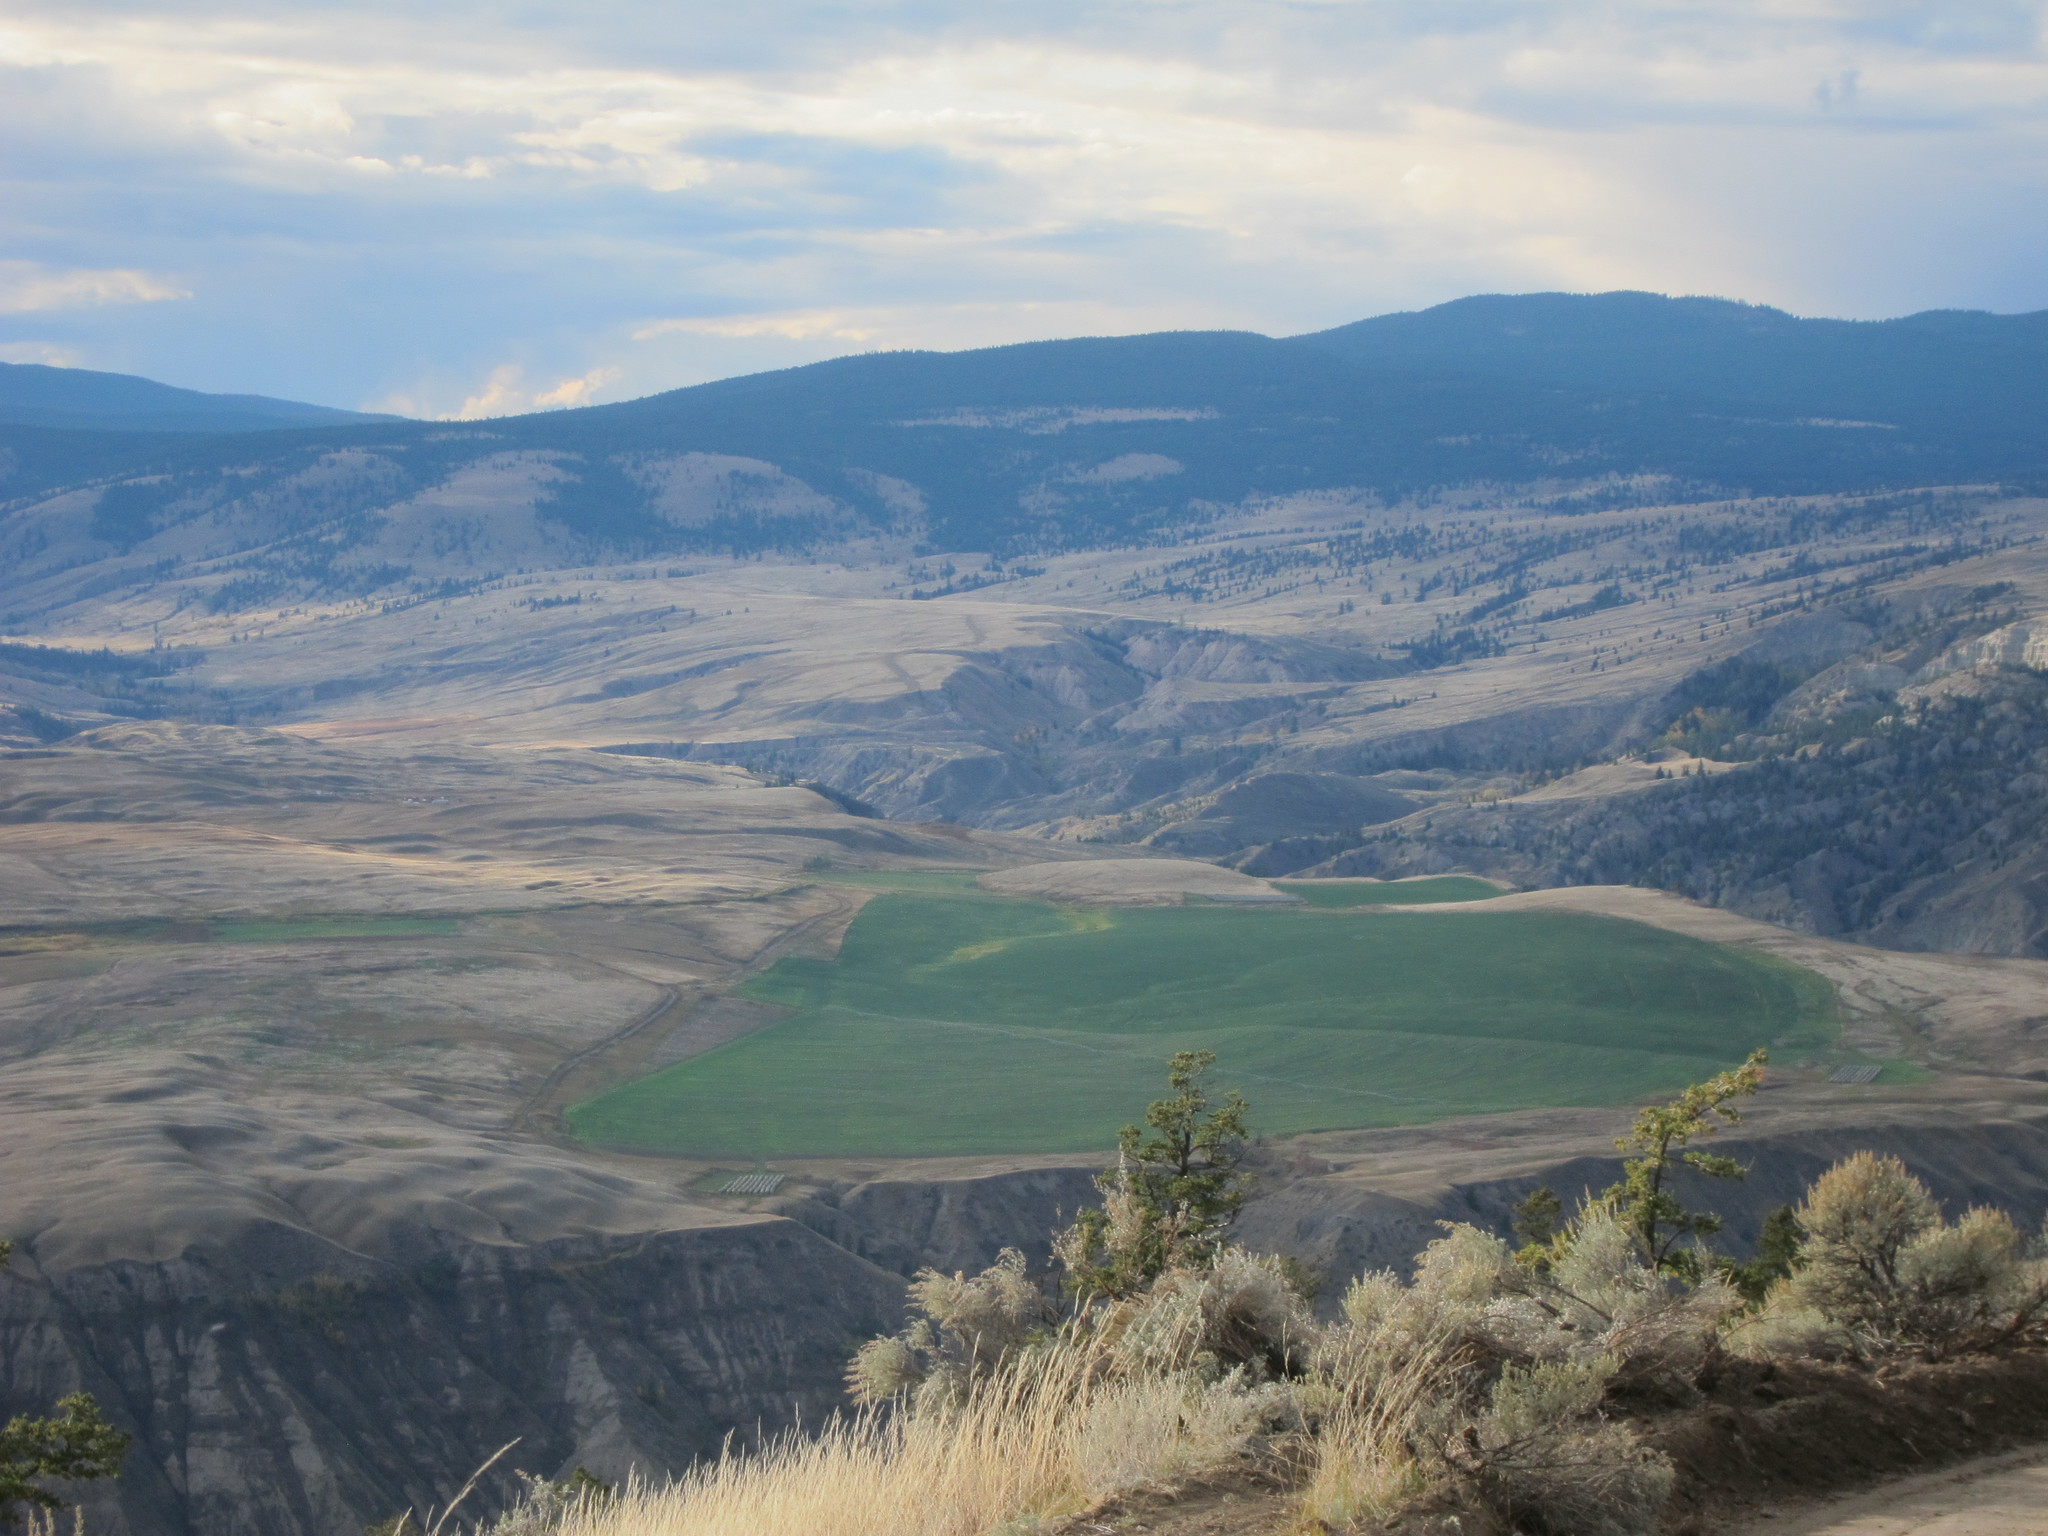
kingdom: Plantae
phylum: Tracheophyta
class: Magnoliopsida
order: Asterales
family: Asteraceae
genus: Artemisia
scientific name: Artemisia tridentata
